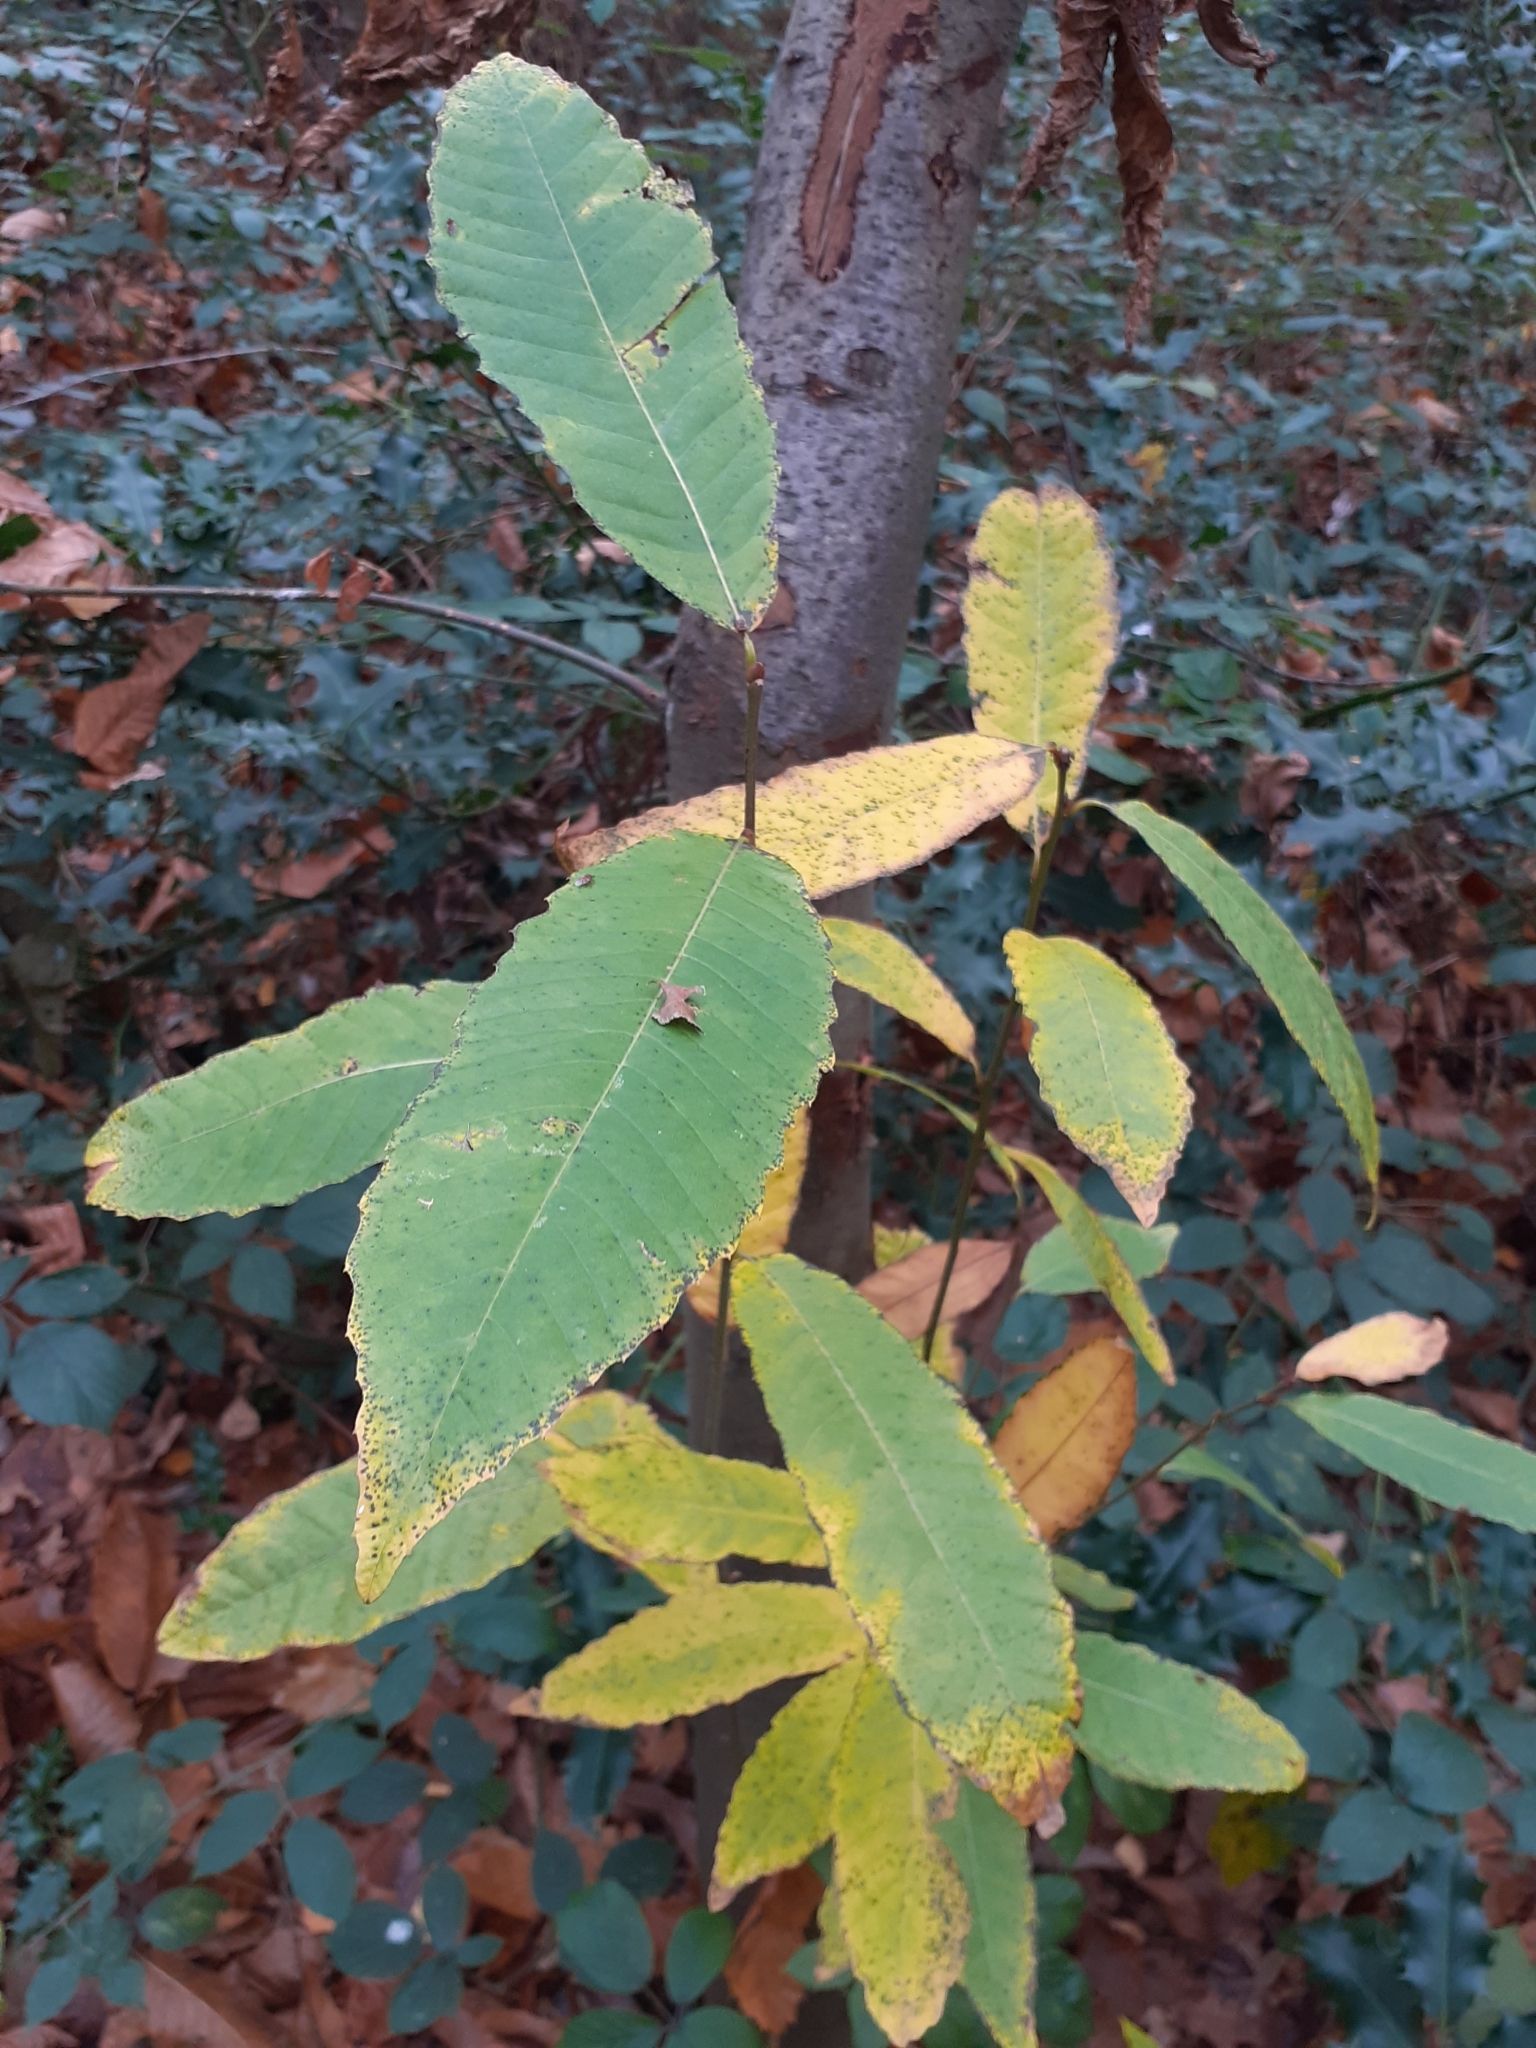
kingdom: Plantae
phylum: Tracheophyta
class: Magnoliopsida
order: Fagales
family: Fagaceae
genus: Castanea
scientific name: Castanea sativa
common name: Sweet chestnut
